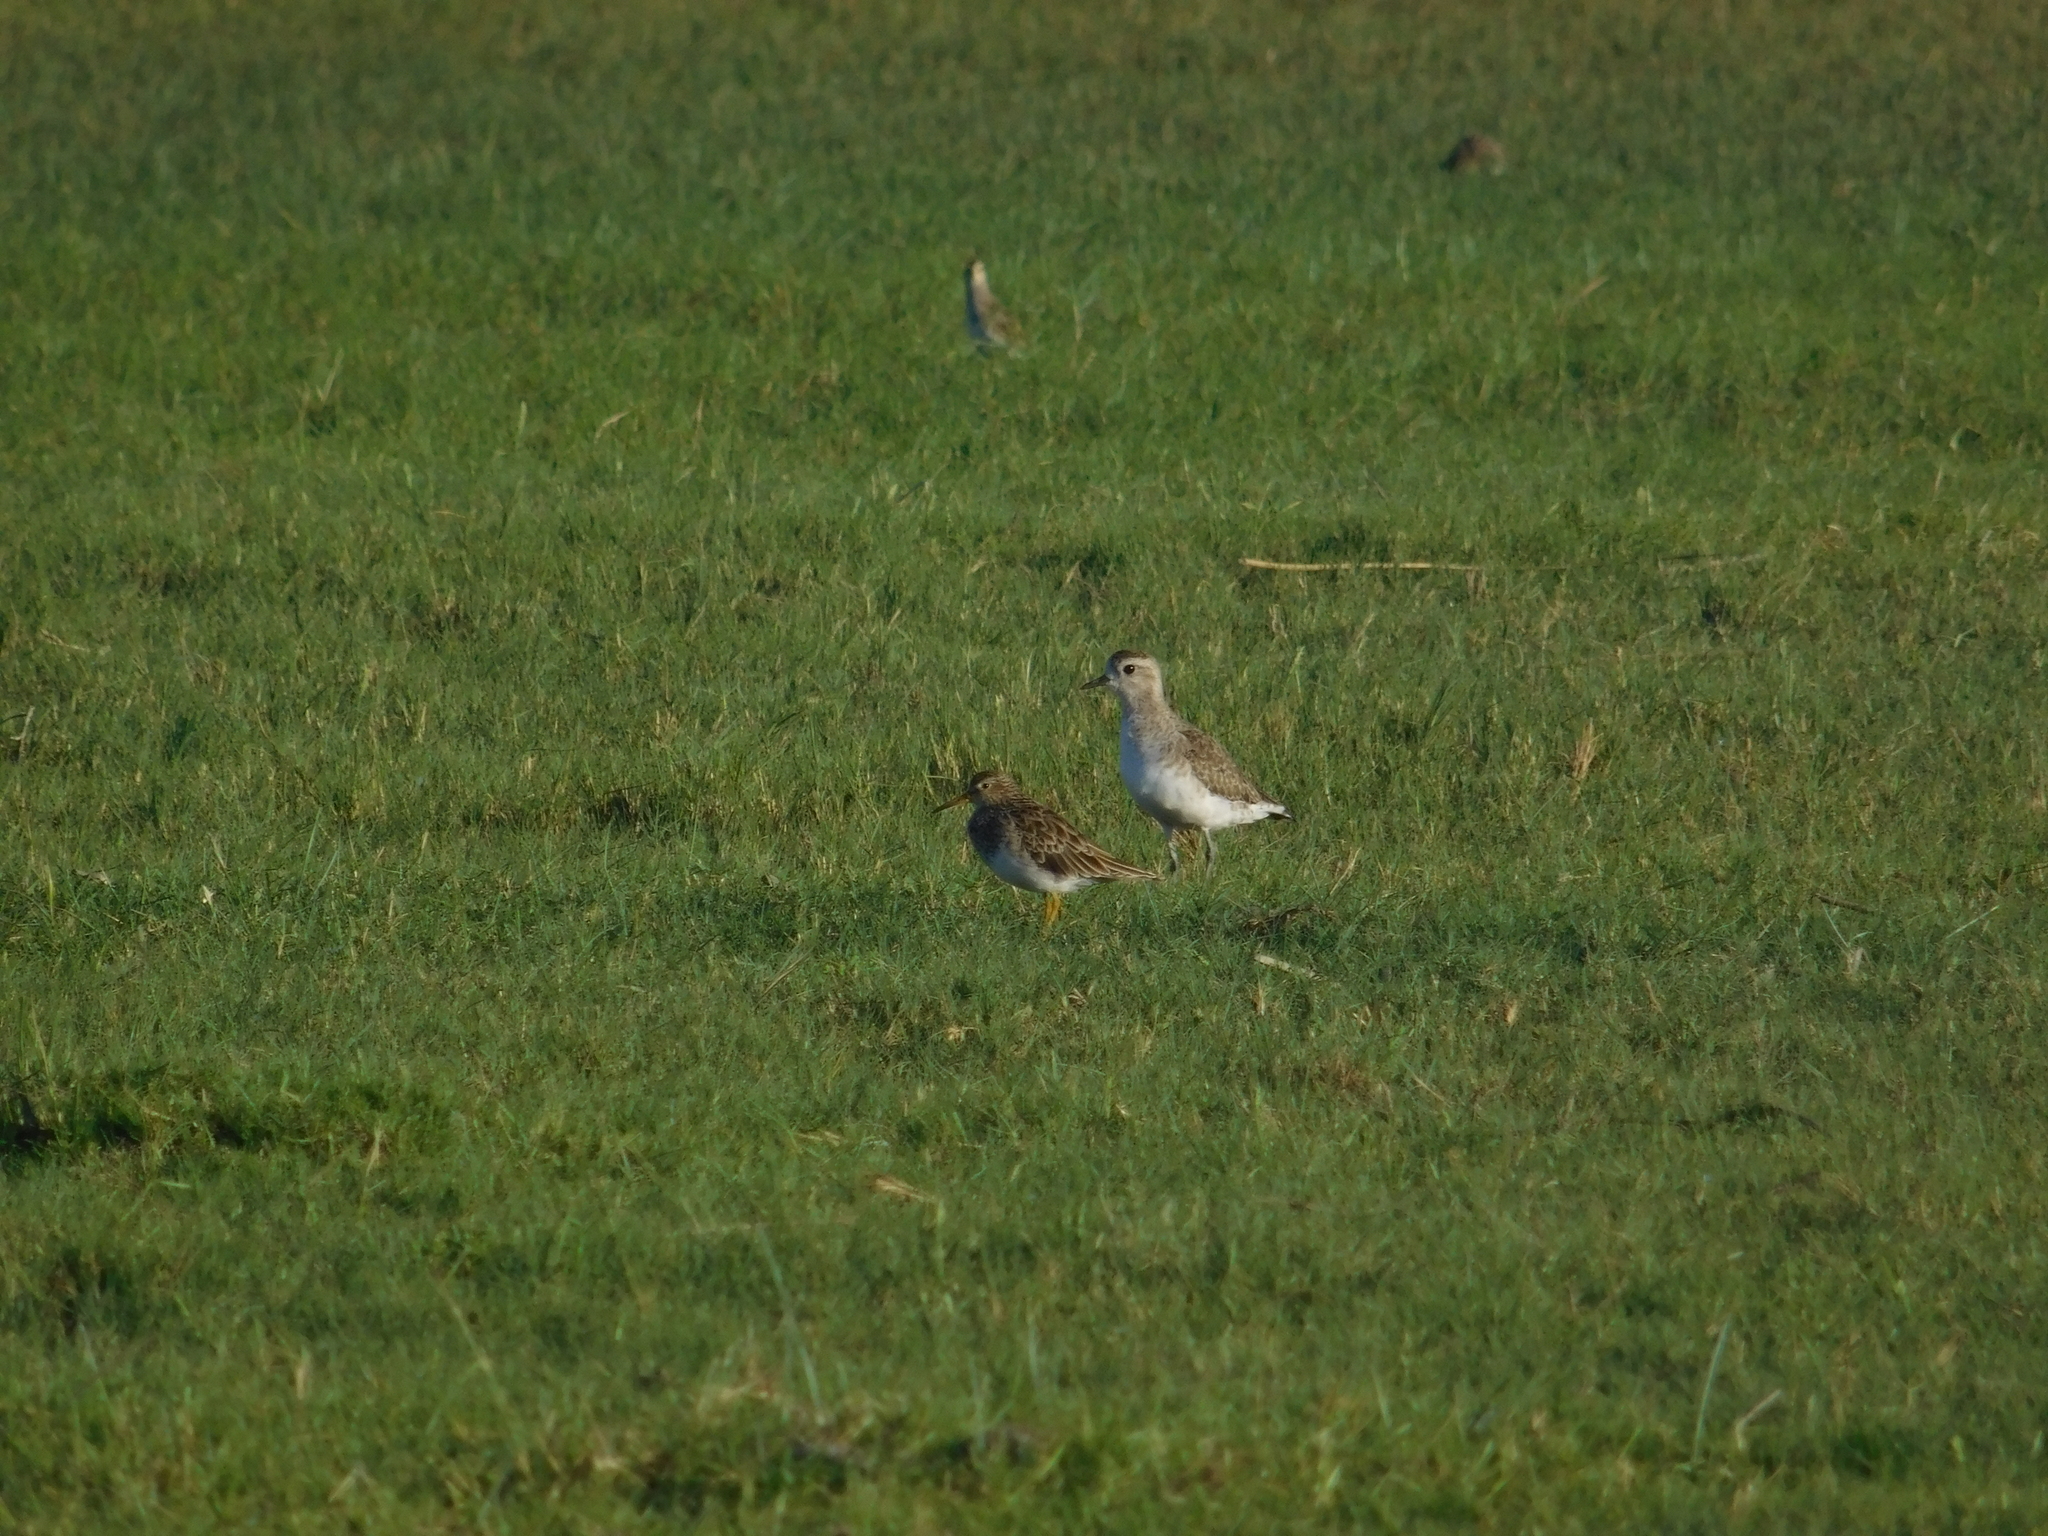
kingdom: Animalia
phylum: Chordata
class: Aves
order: Charadriiformes
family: Charadriidae
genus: Pluvialis
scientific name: Pluvialis dominica
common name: American golden plover
